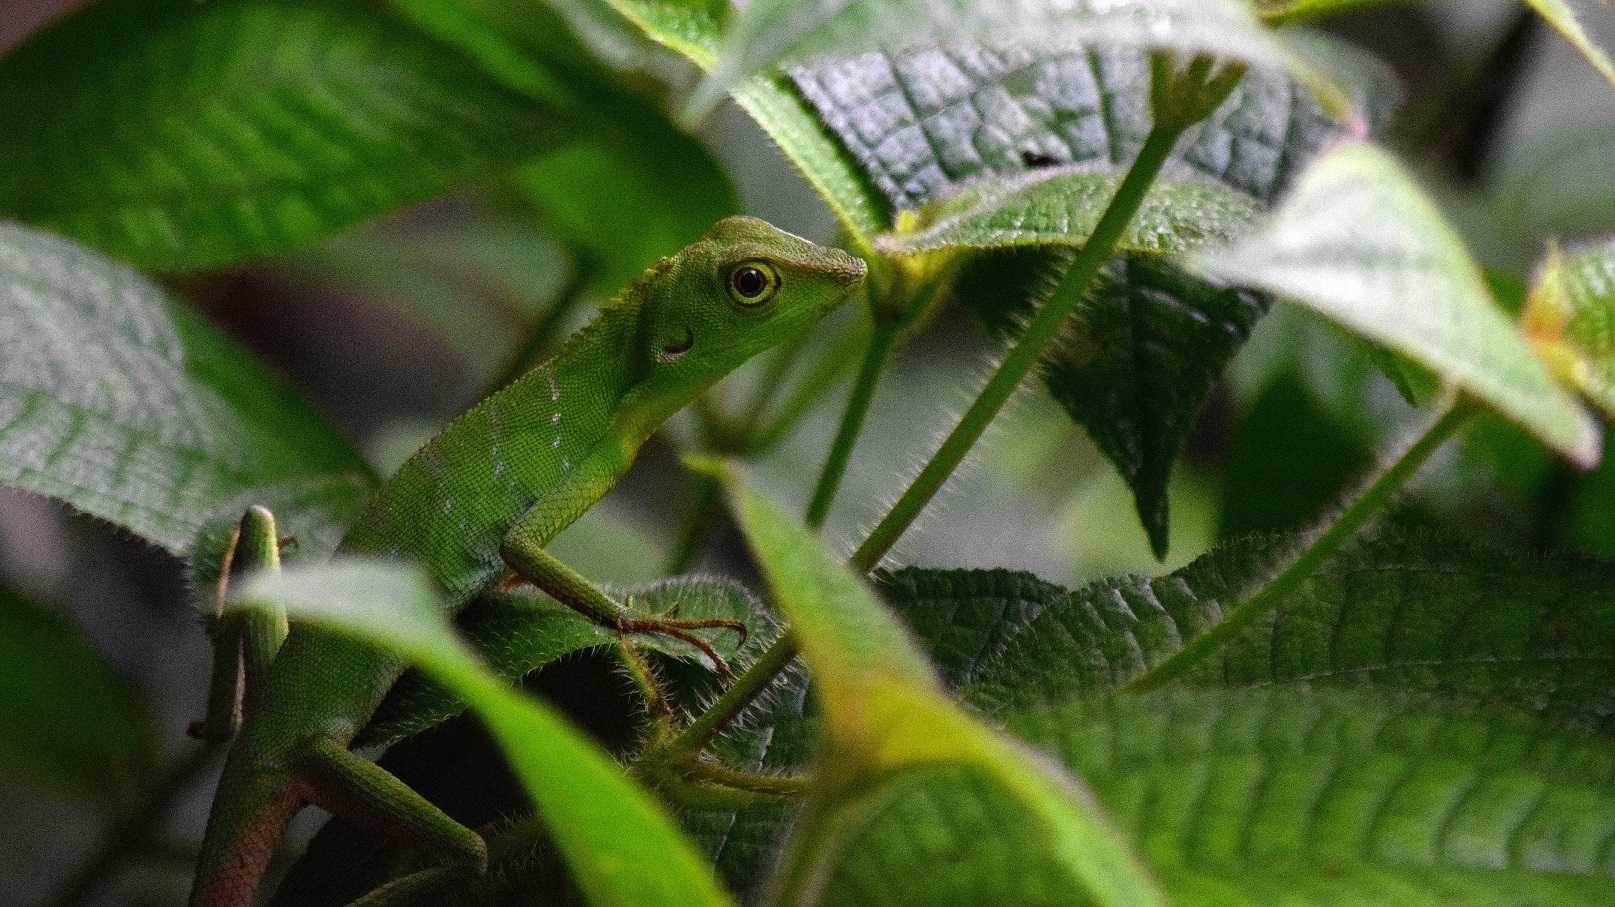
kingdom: Animalia
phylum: Chordata
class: Squamata
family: Agamidae
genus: Bronchocela
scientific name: Bronchocela cristatella
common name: Green crested lizard
